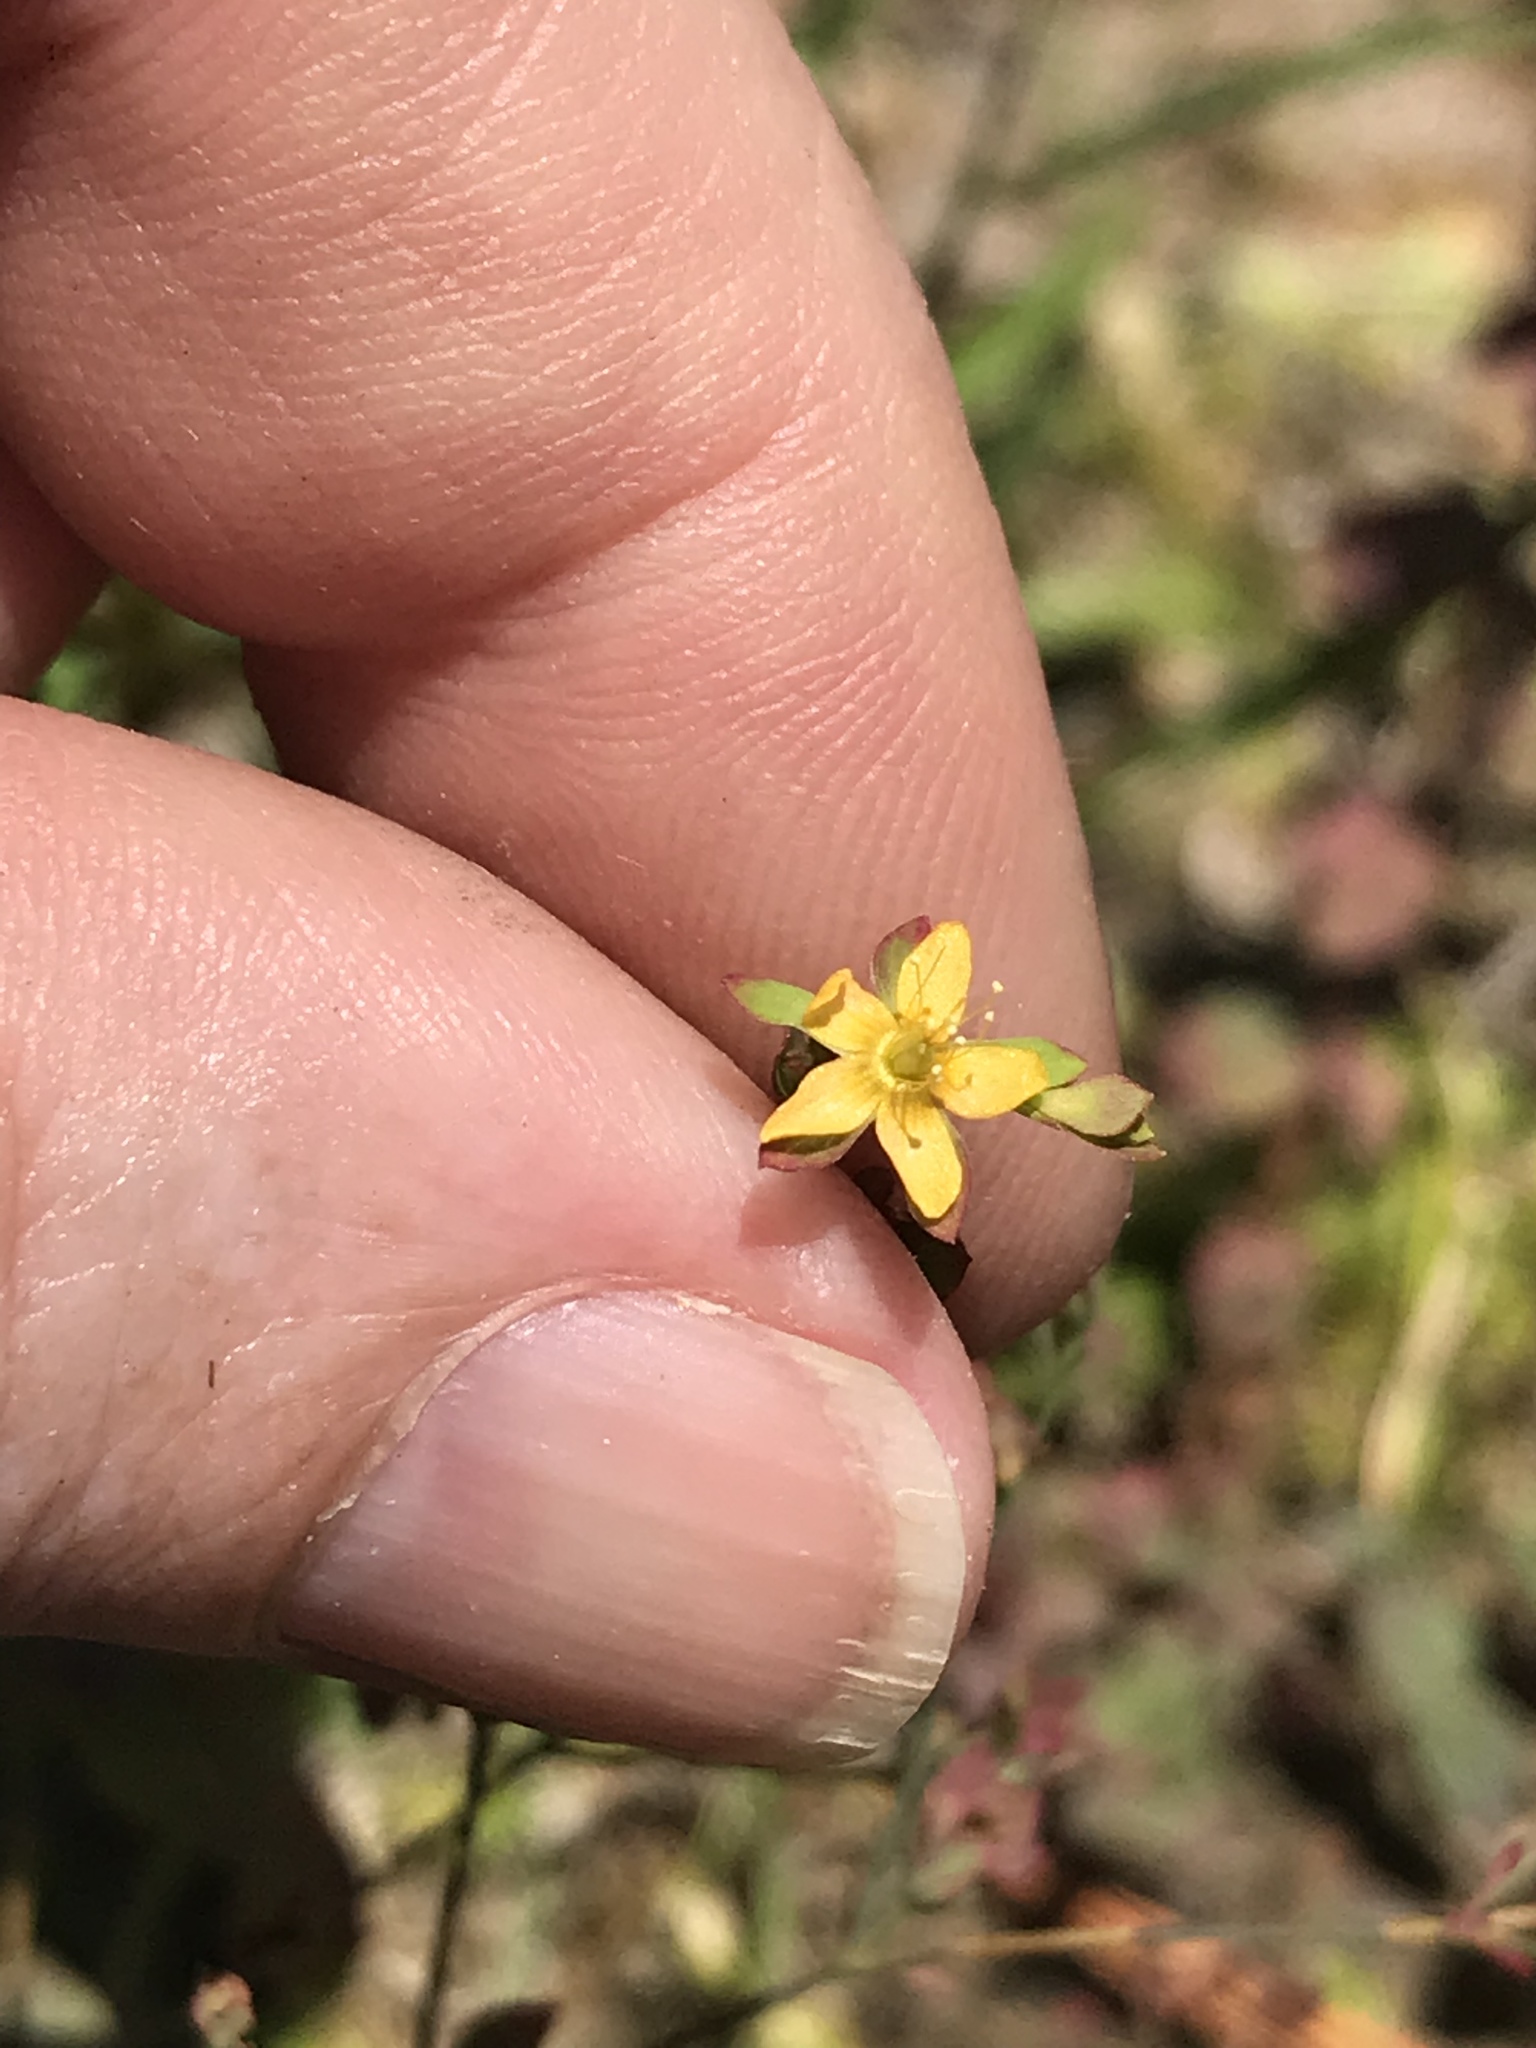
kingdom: Plantae
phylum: Tracheophyta
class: Magnoliopsida
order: Malpighiales
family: Hypericaceae
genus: Hypericum
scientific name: Hypericum mutilum
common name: Dwarf st. john's-wort
